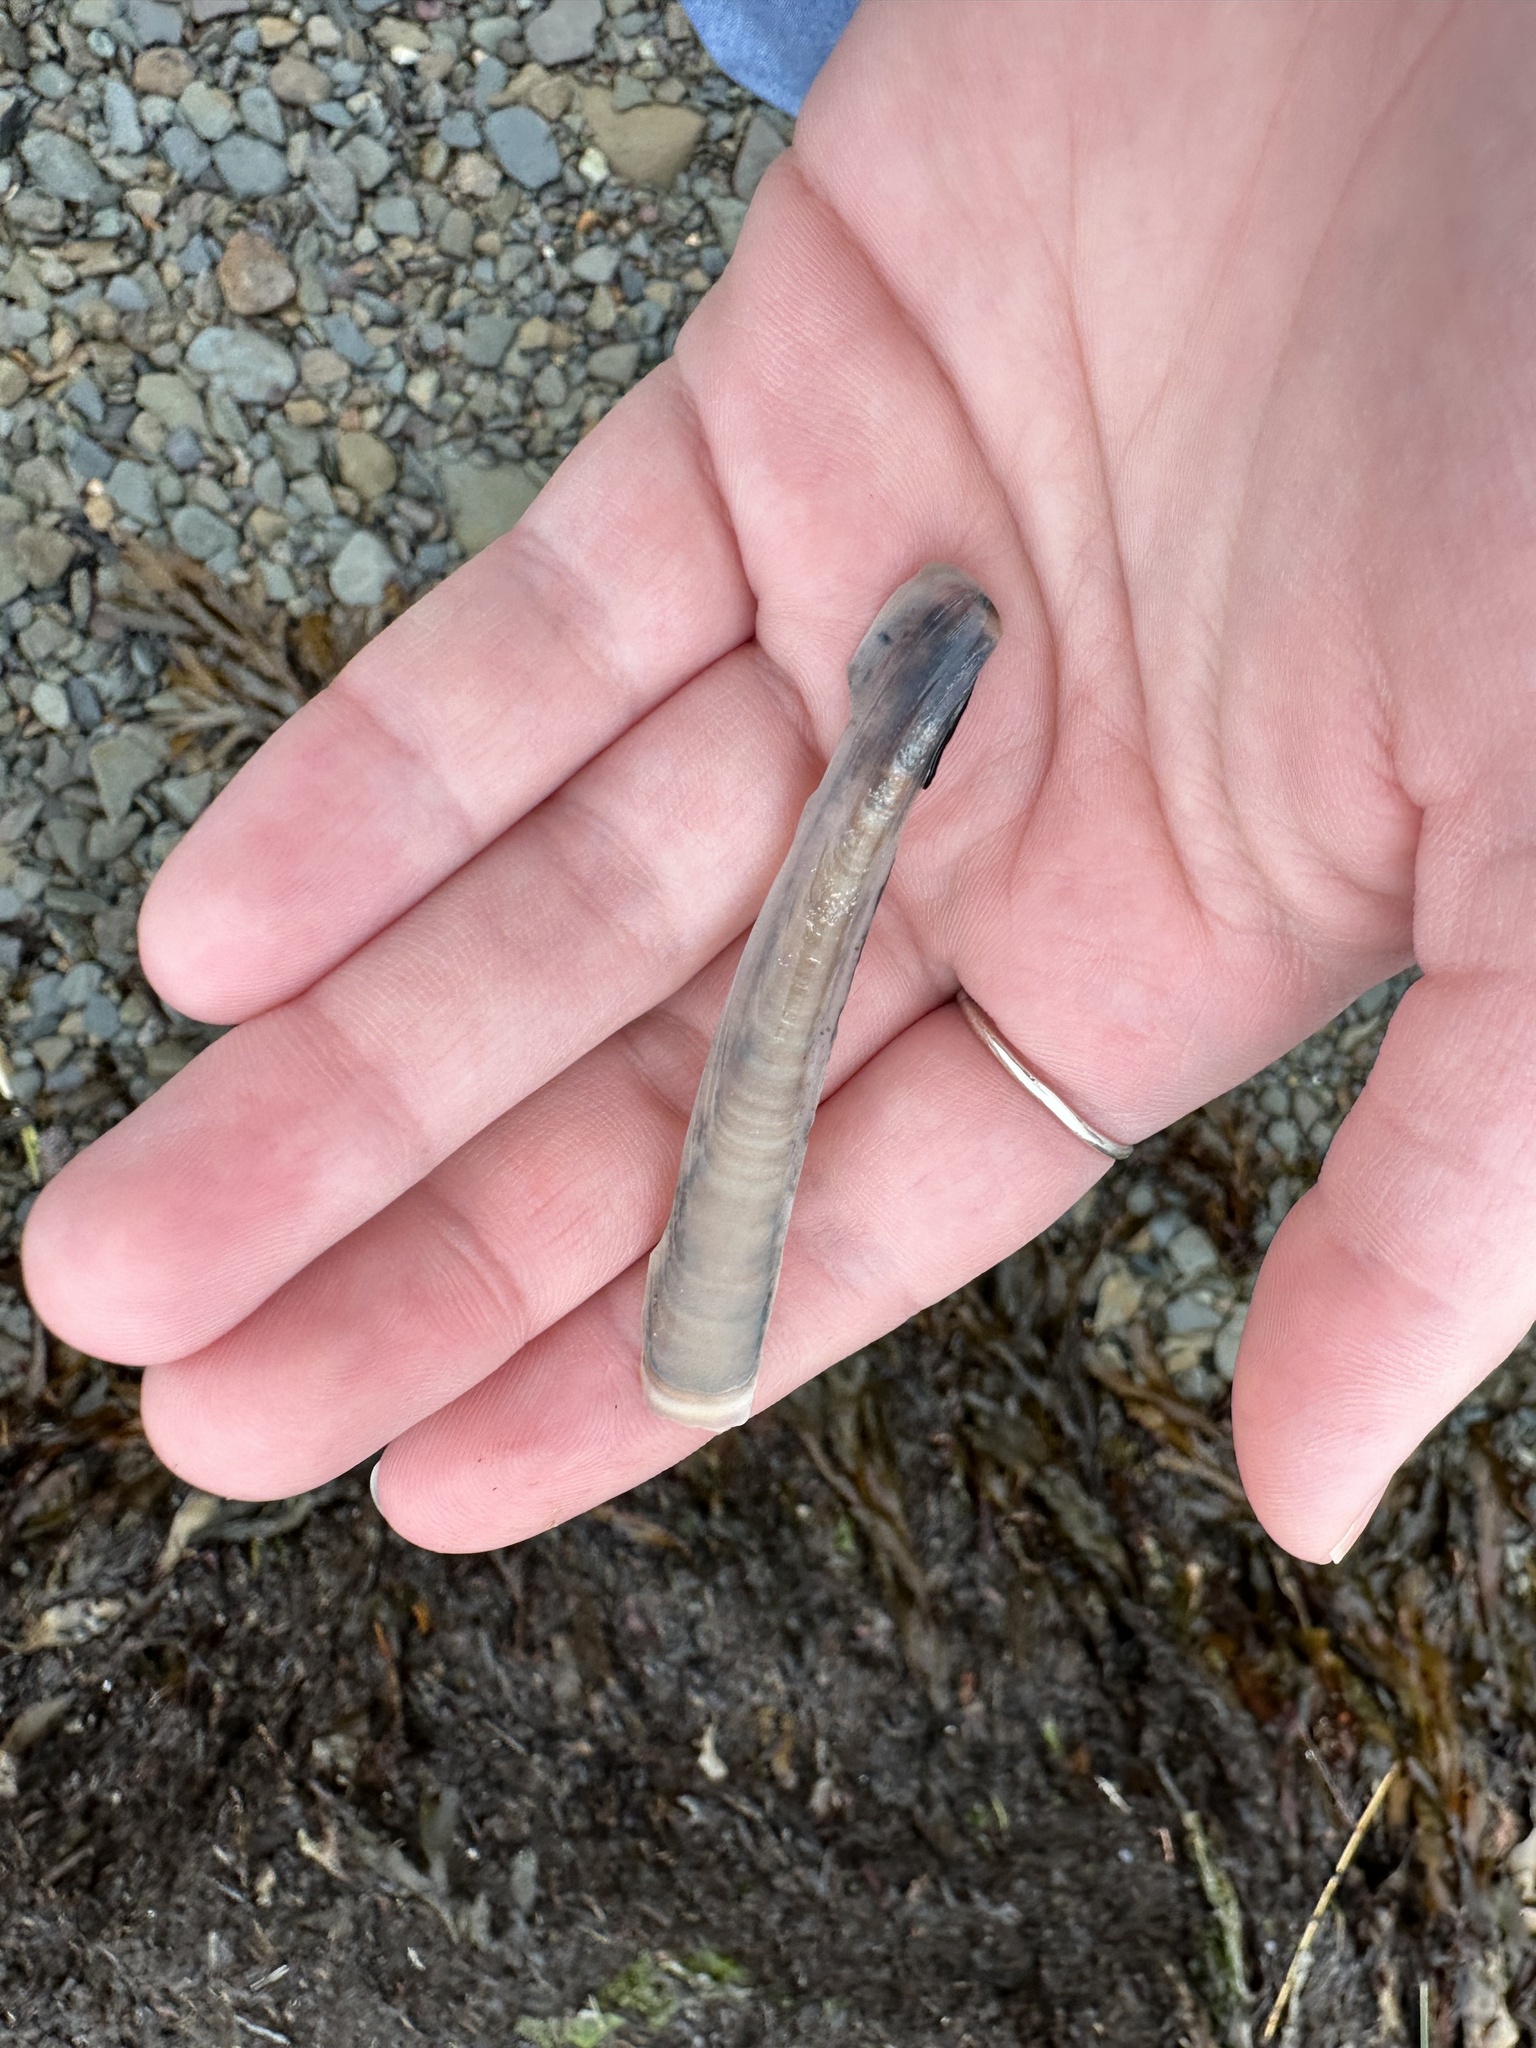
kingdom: Animalia
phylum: Mollusca
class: Bivalvia
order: Adapedonta
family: Pharidae
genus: Ensis
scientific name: Ensis leei
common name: American jack knife clam
